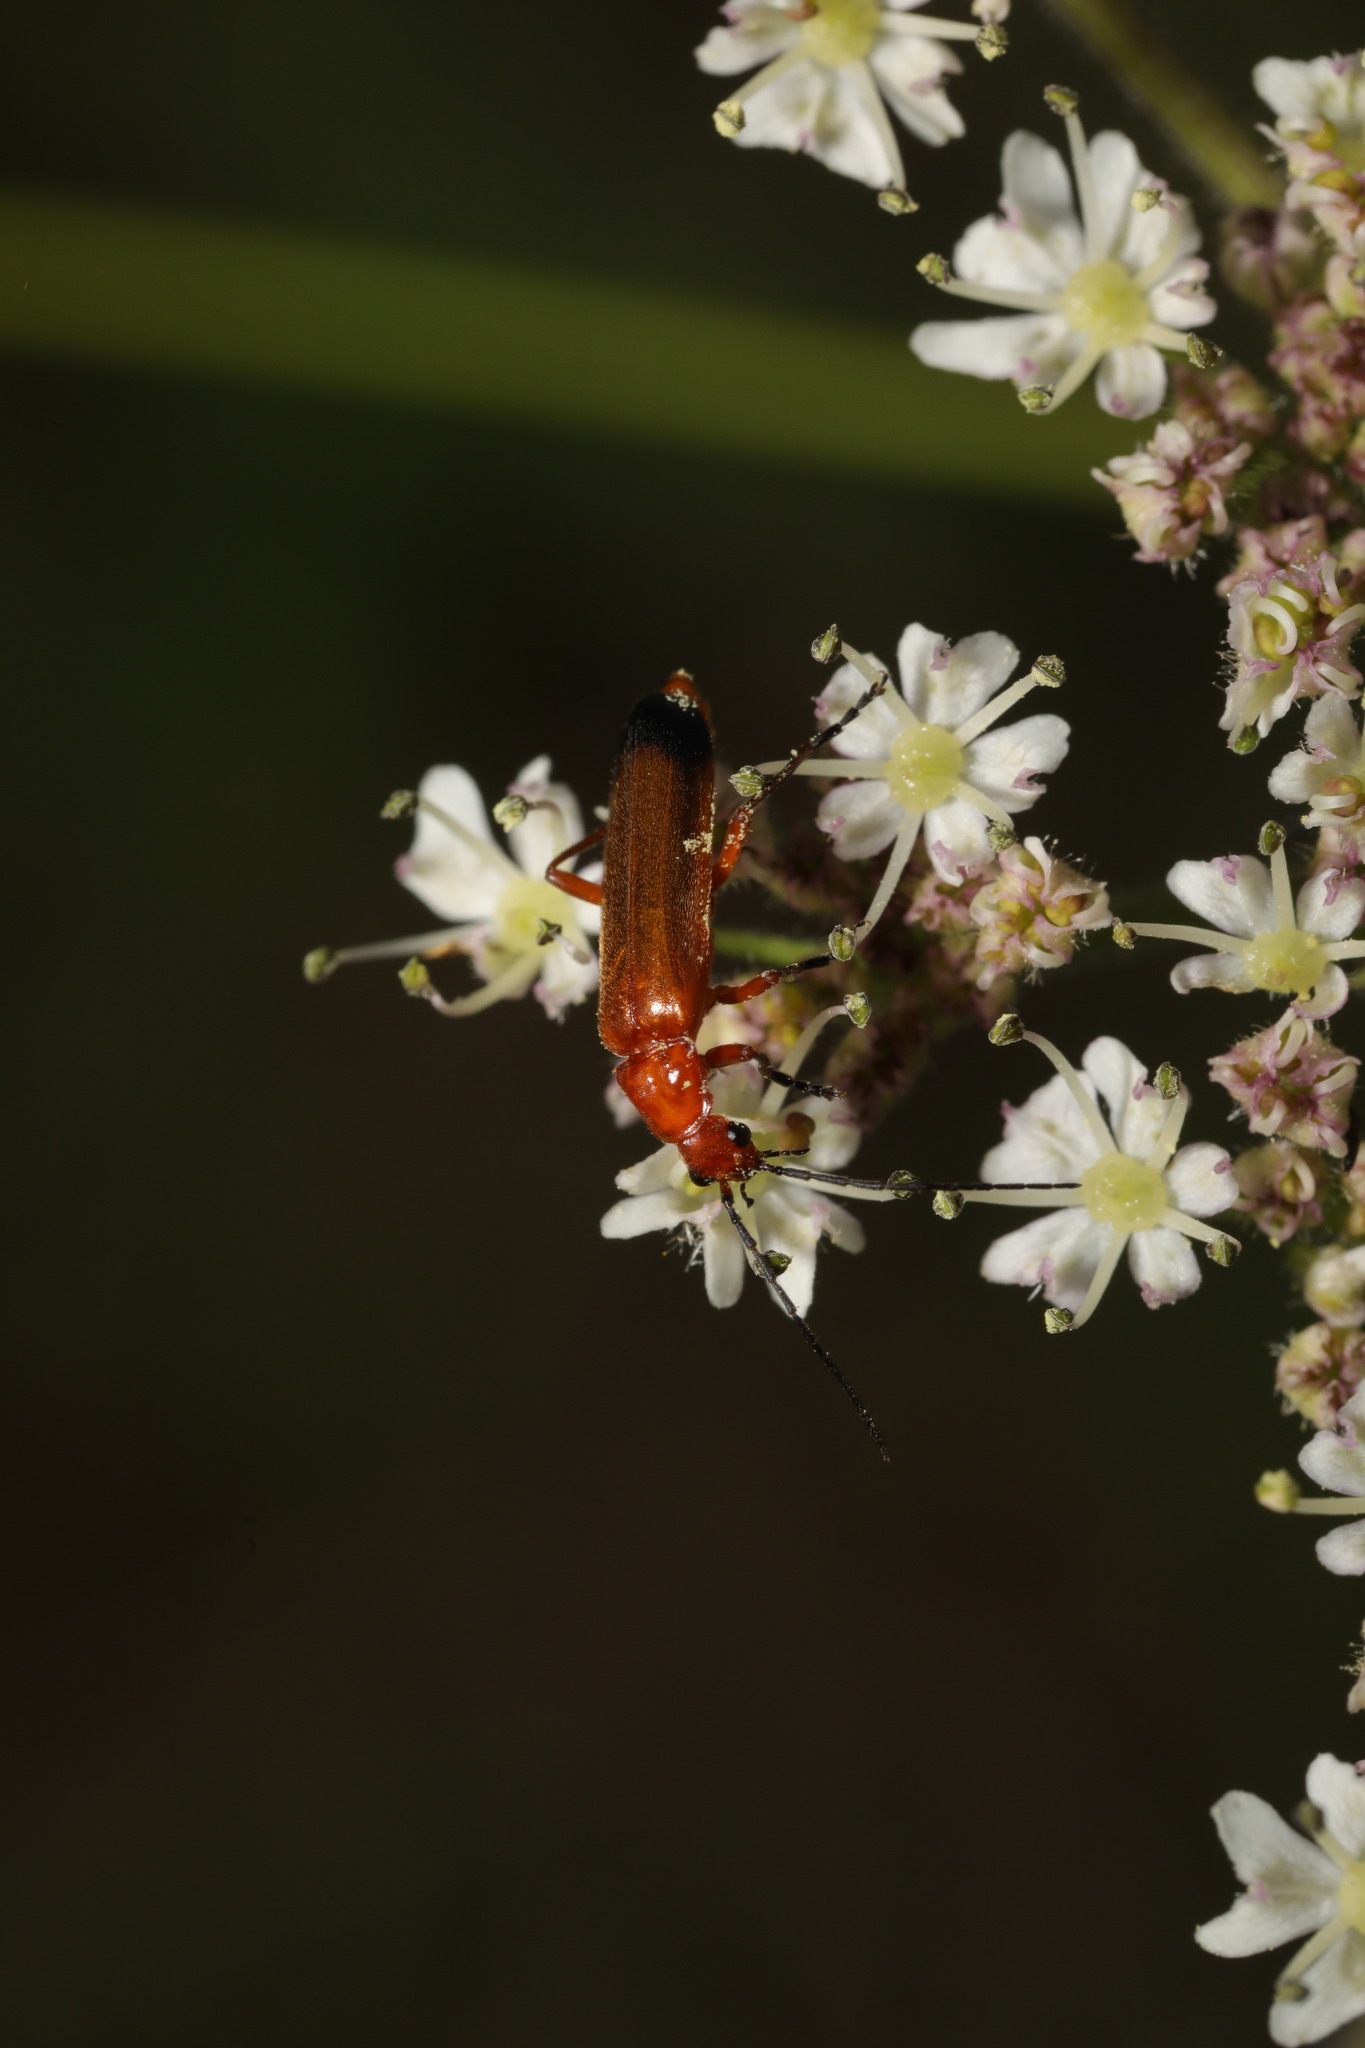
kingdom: Animalia
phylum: Arthropoda
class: Insecta
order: Coleoptera
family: Cantharidae
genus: Rhagonycha
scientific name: Rhagonycha fulva
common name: Common red soldier beetle
